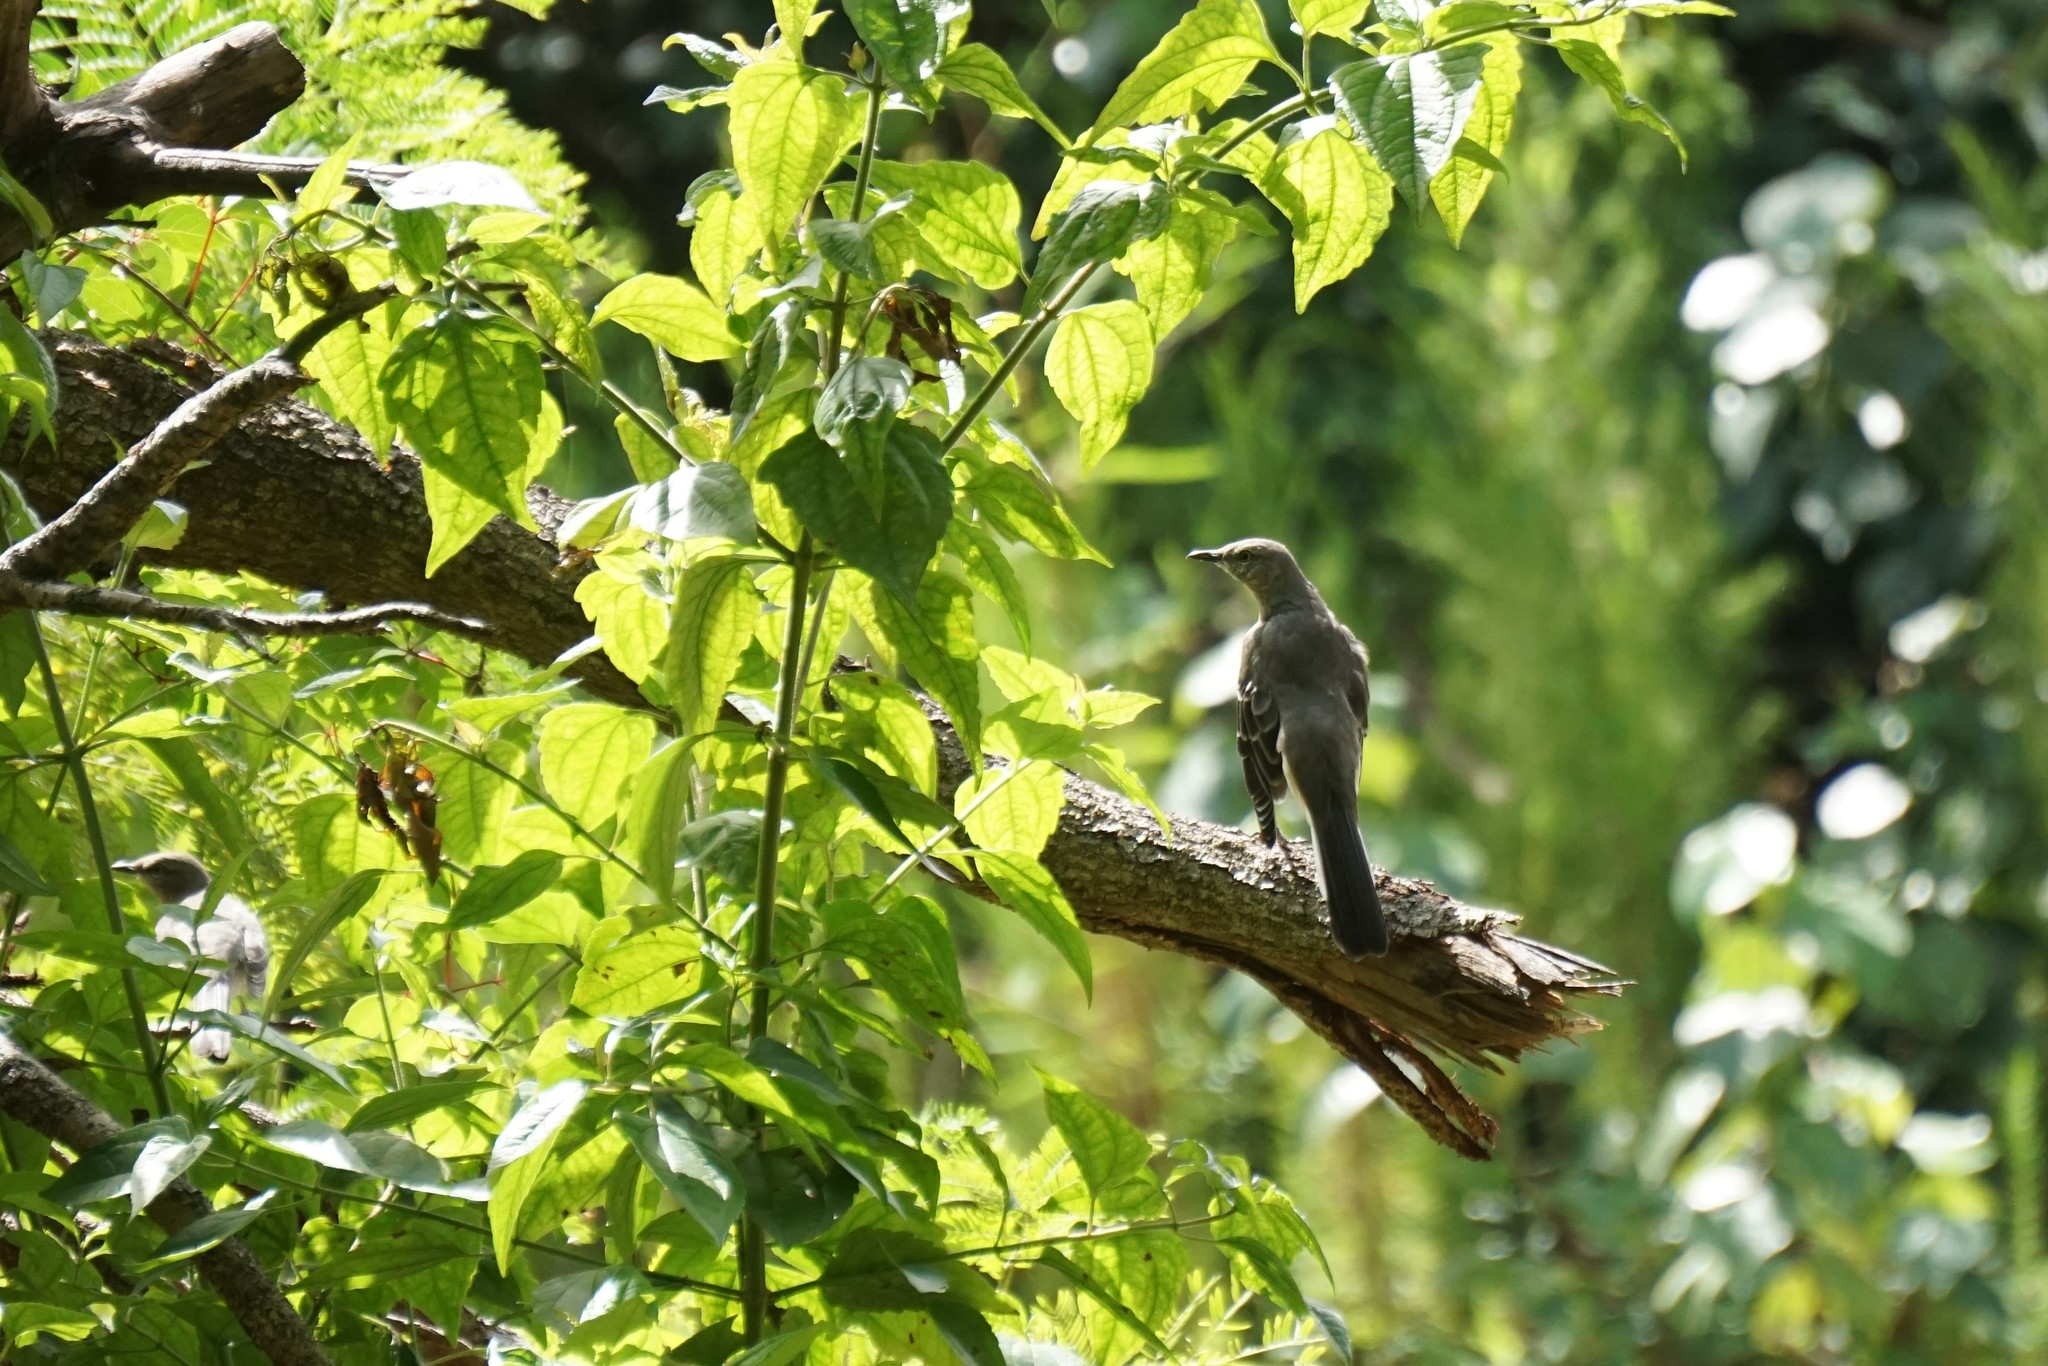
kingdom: Animalia
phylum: Chordata
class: Aves
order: Passeriformes
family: Mimidae
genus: Mimus
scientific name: Mimus polyglottos
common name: Northern mockingbird
